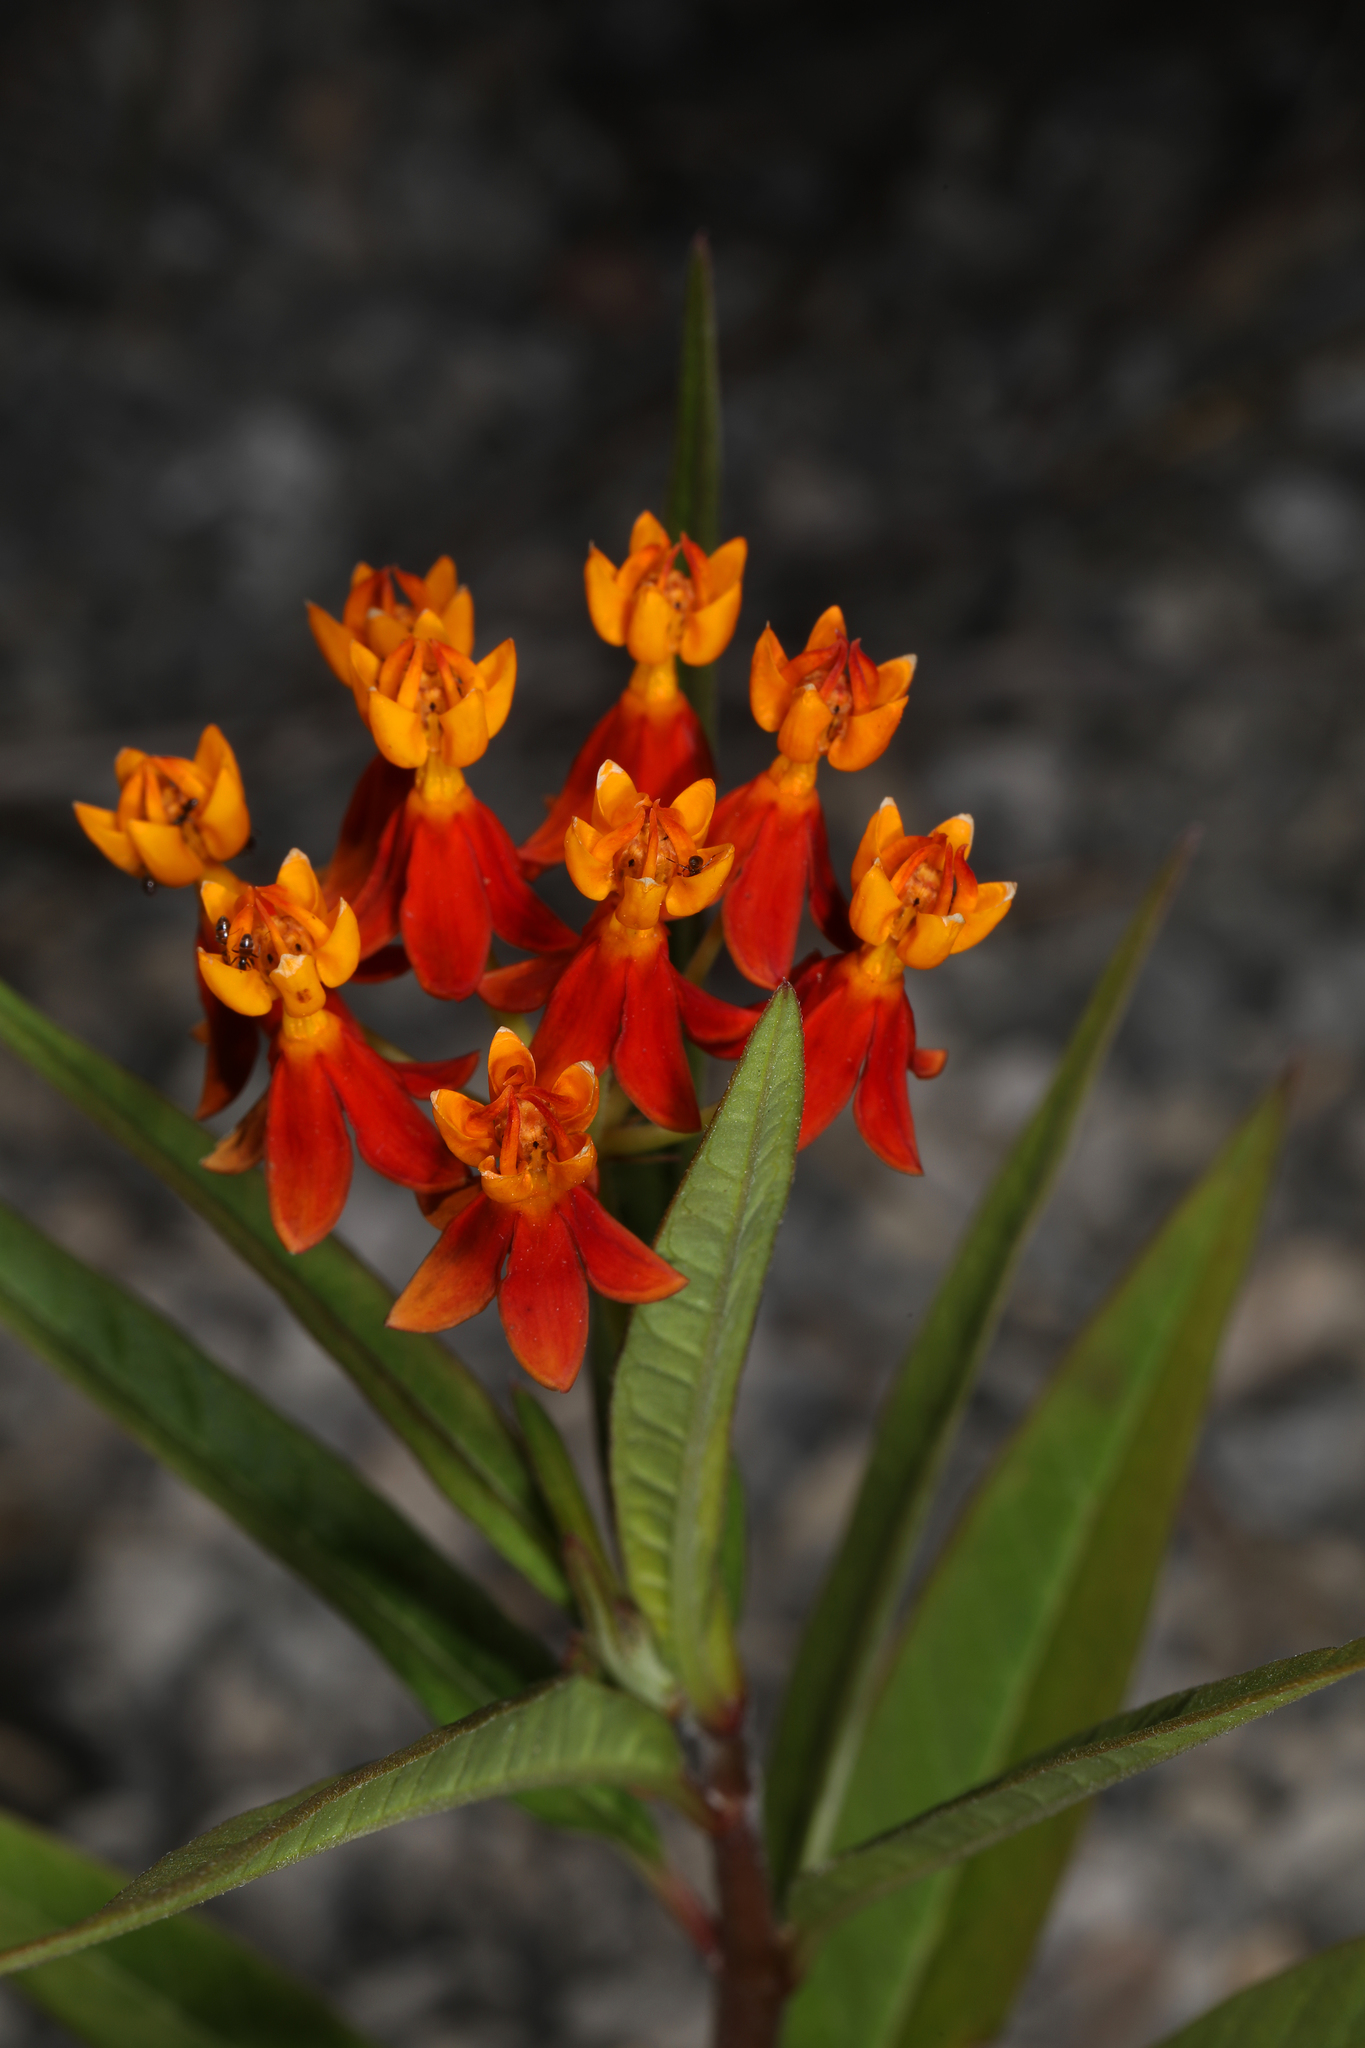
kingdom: Plantae
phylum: Tracheophyta
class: Magnoliopsida
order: Gentianales
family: Apocynaceae
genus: Asclepias
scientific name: Asclepias curassavica
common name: Bloodflower
